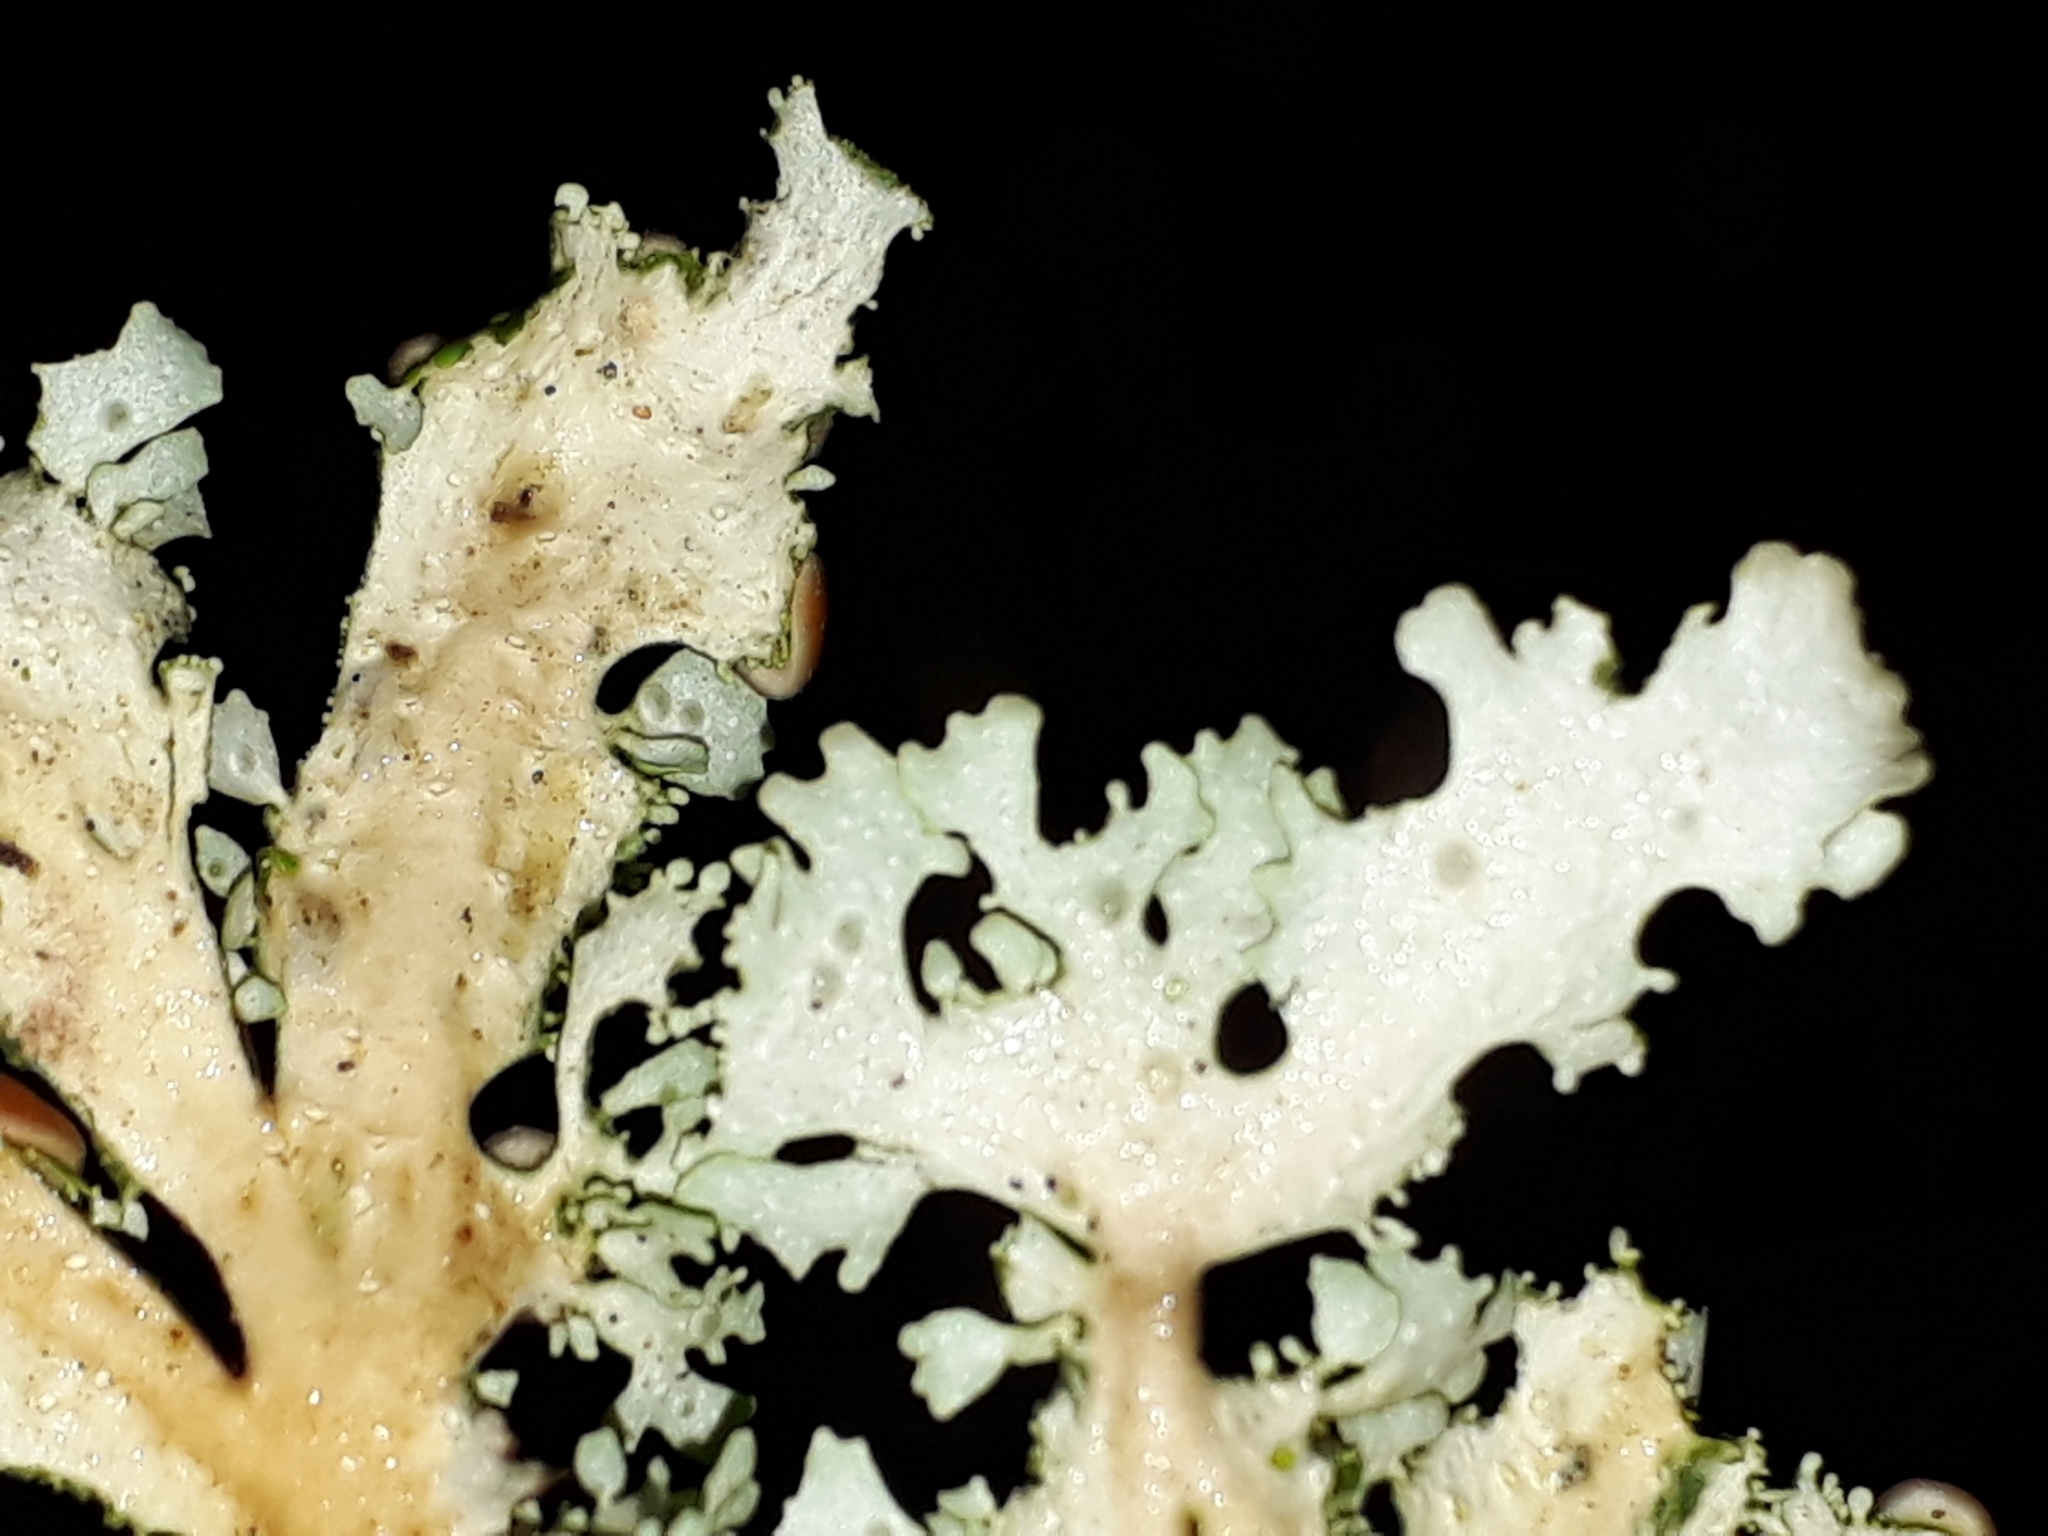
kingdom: Fungi
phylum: Ascomycota
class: Lecanoromycetes
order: Peltigerales
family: Lobariaceae
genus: Sticta
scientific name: Sticta filix
